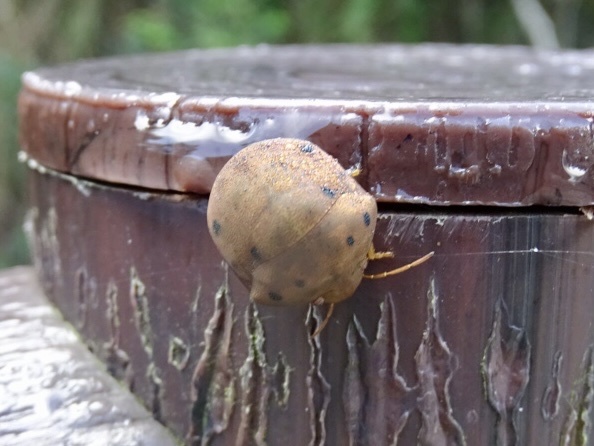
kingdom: Animalia
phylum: Arthropoda
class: Insecta
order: Hemiptera
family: Scutelleridae
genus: Hyperoncus
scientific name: Hyperoncus lateritius
